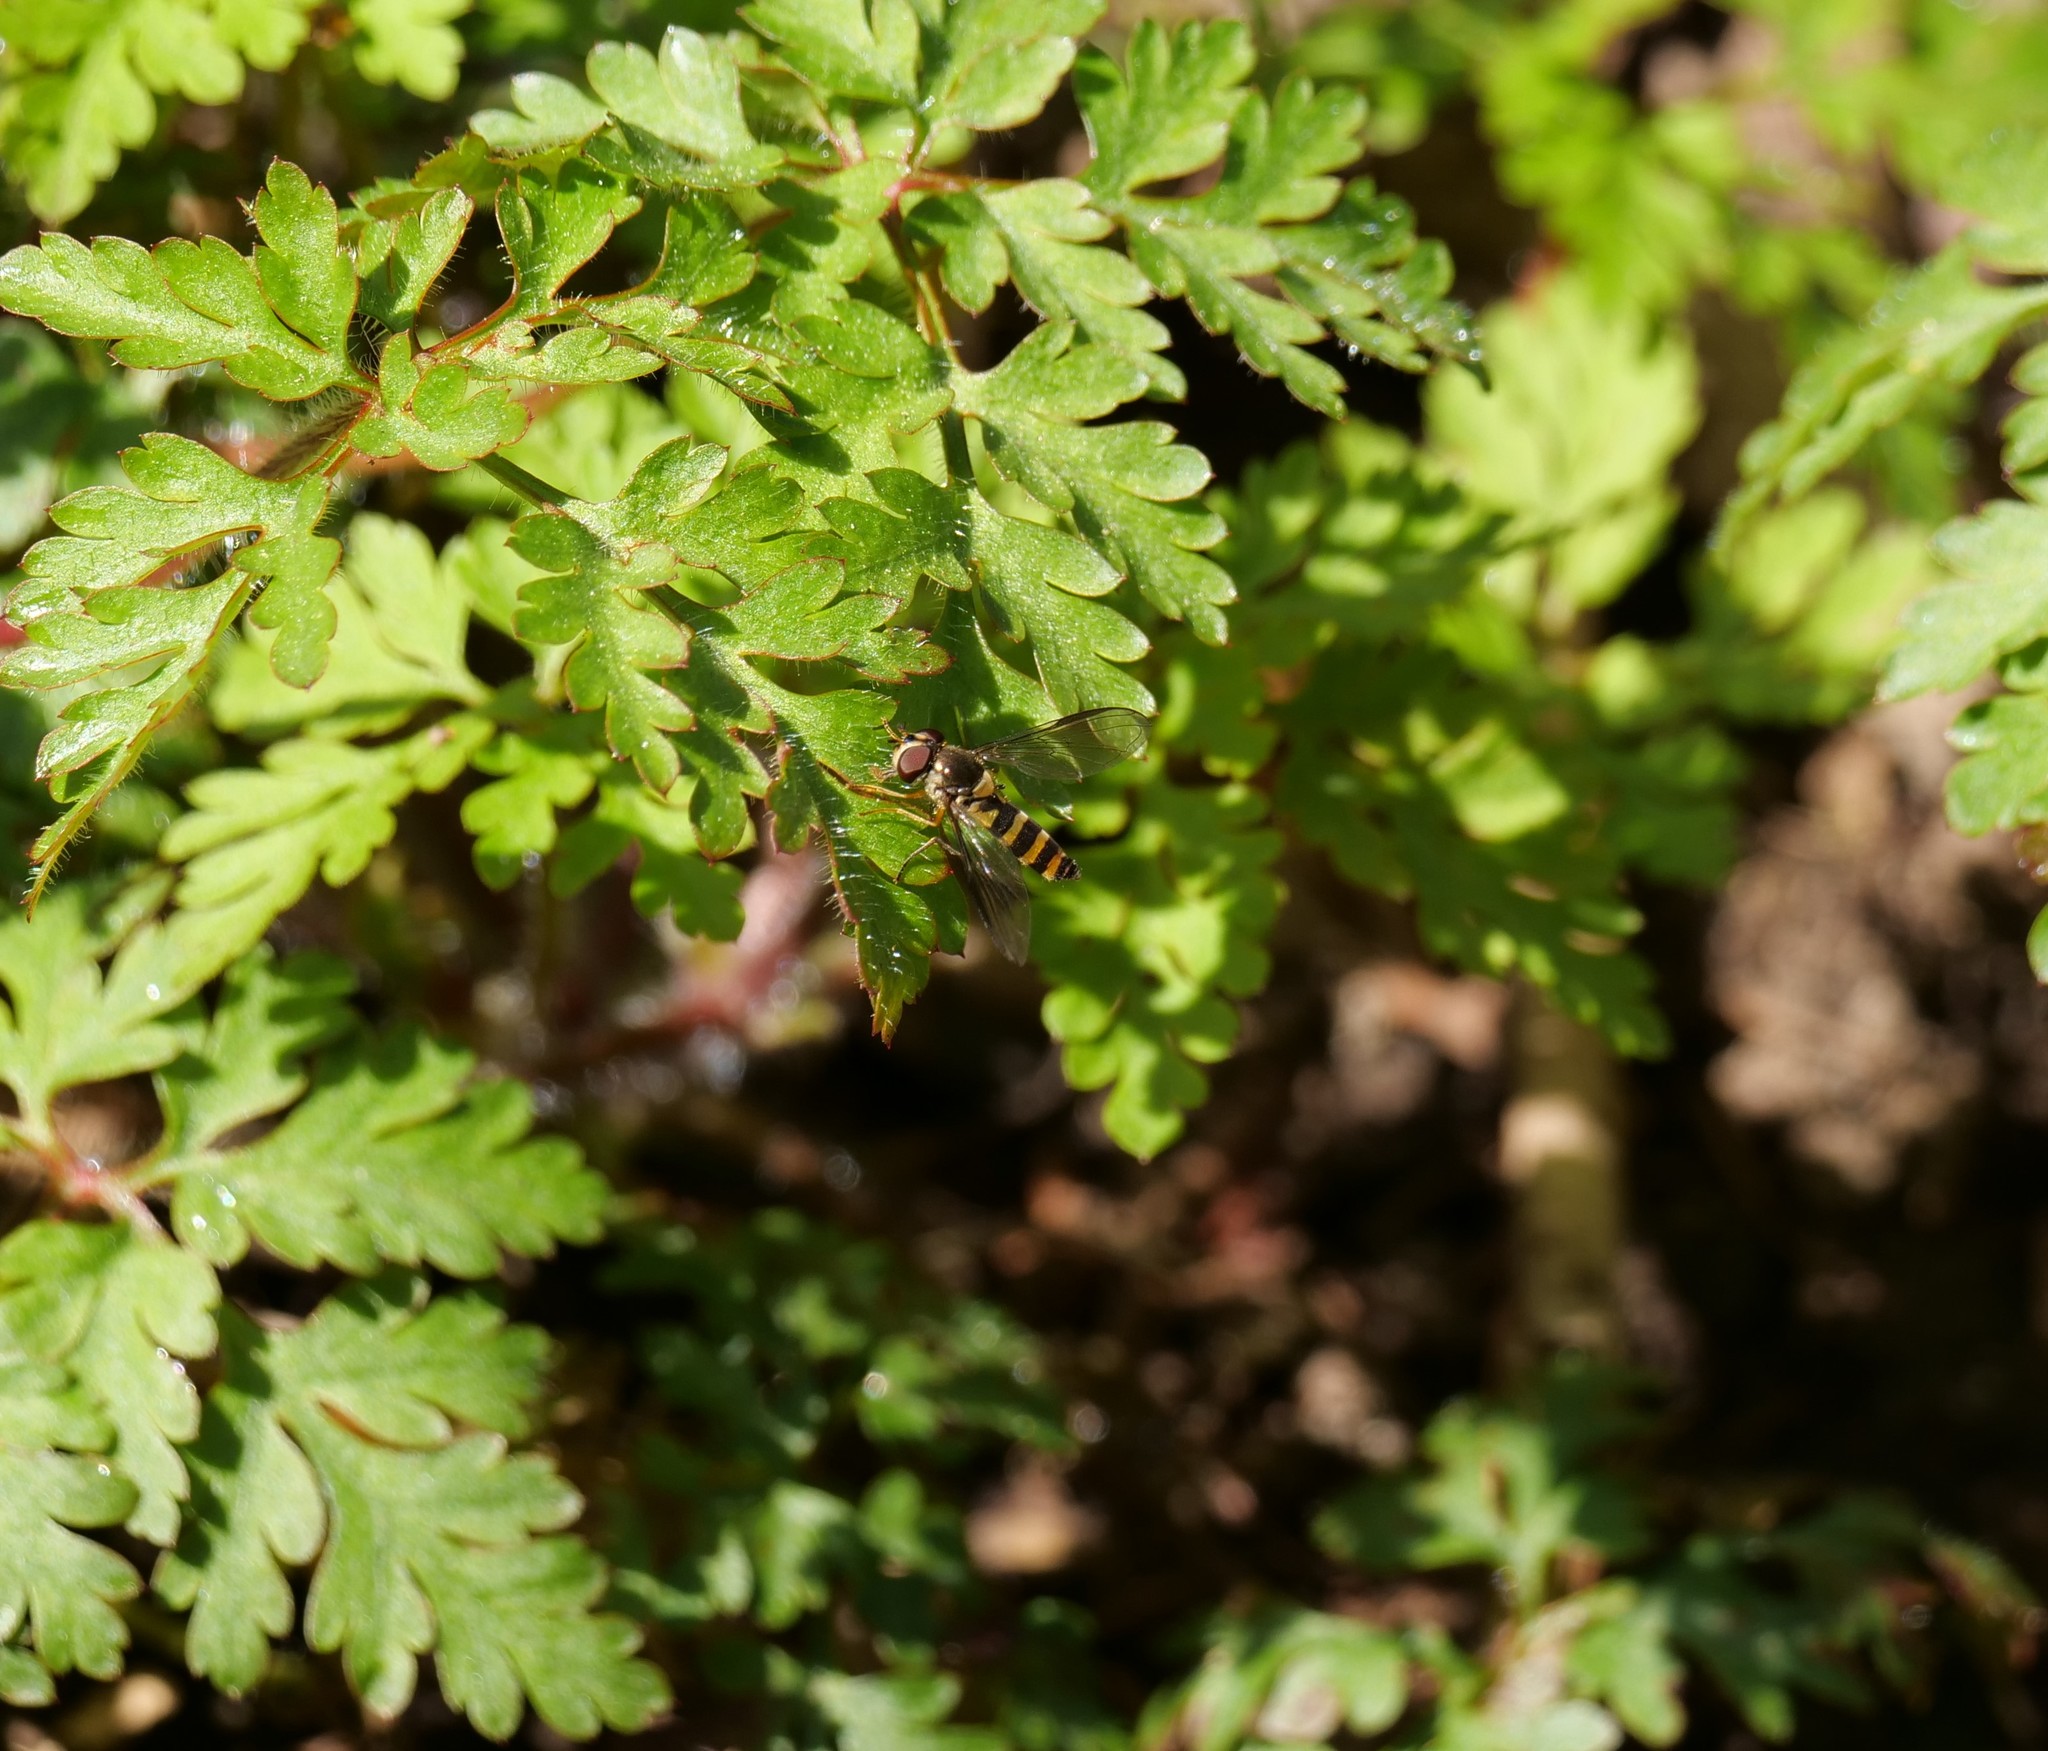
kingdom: Animalia
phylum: Arthropoda
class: Insecta
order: Diptera
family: Syrphidae
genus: Meliscaeva
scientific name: Meliscaeva cinctella
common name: American thintail fly
